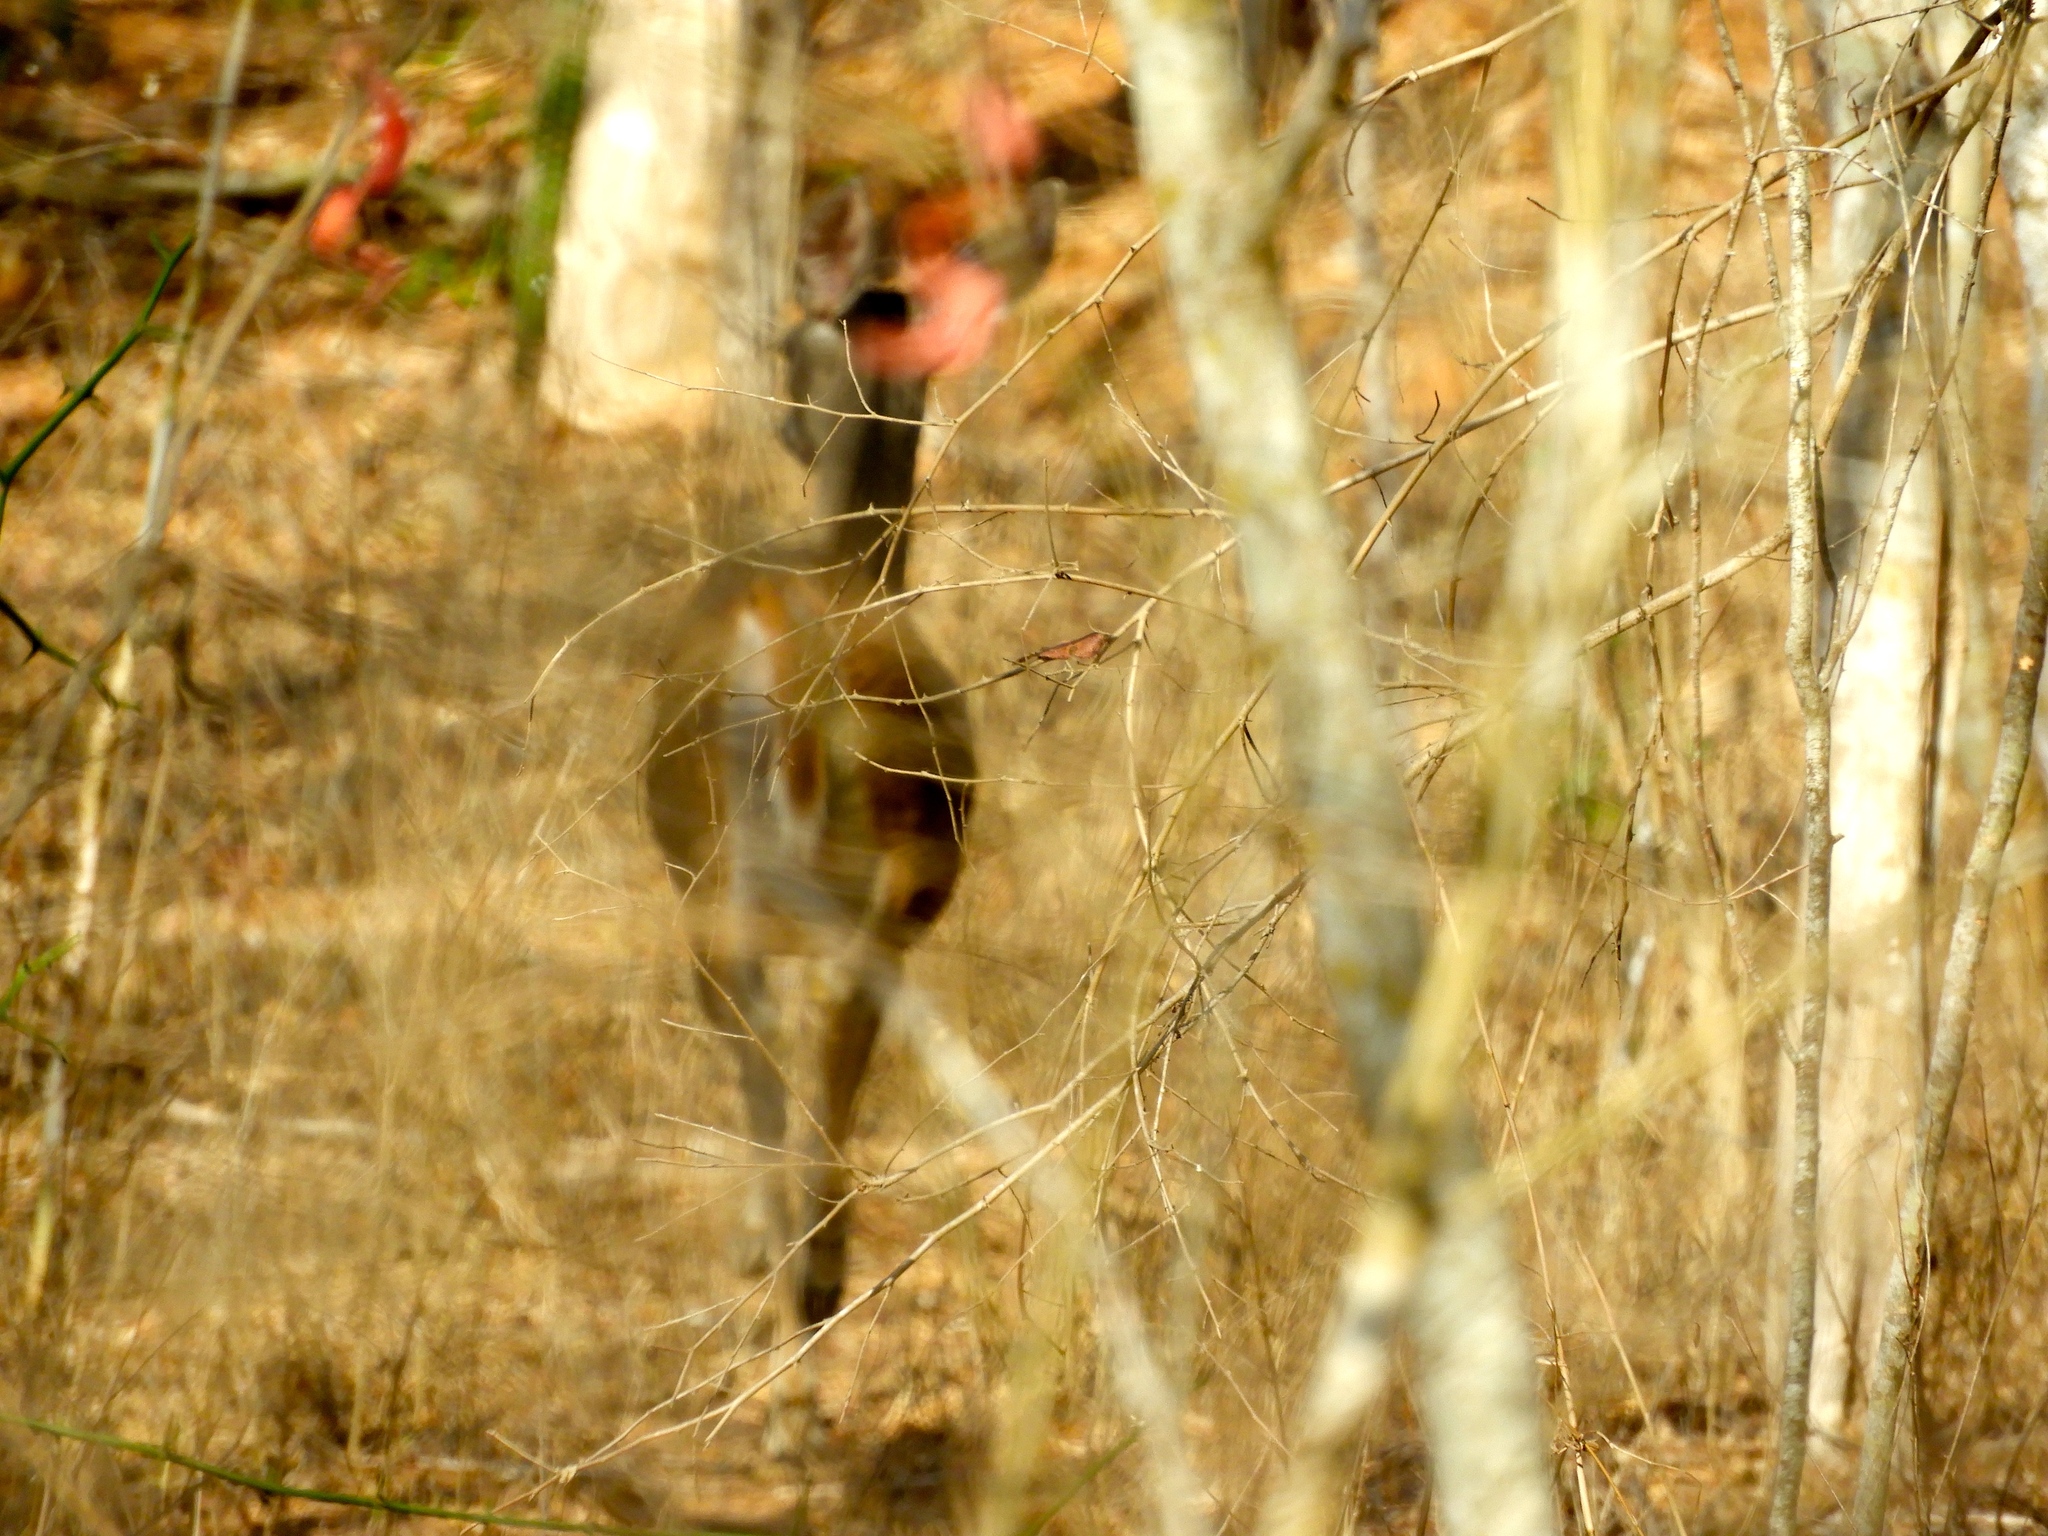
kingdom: Animalia
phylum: Chordata
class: Mammalia
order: Artiodactyla
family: Cervidae
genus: Odocoileus
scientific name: Odocoileus virginianus
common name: White-tailed deer
